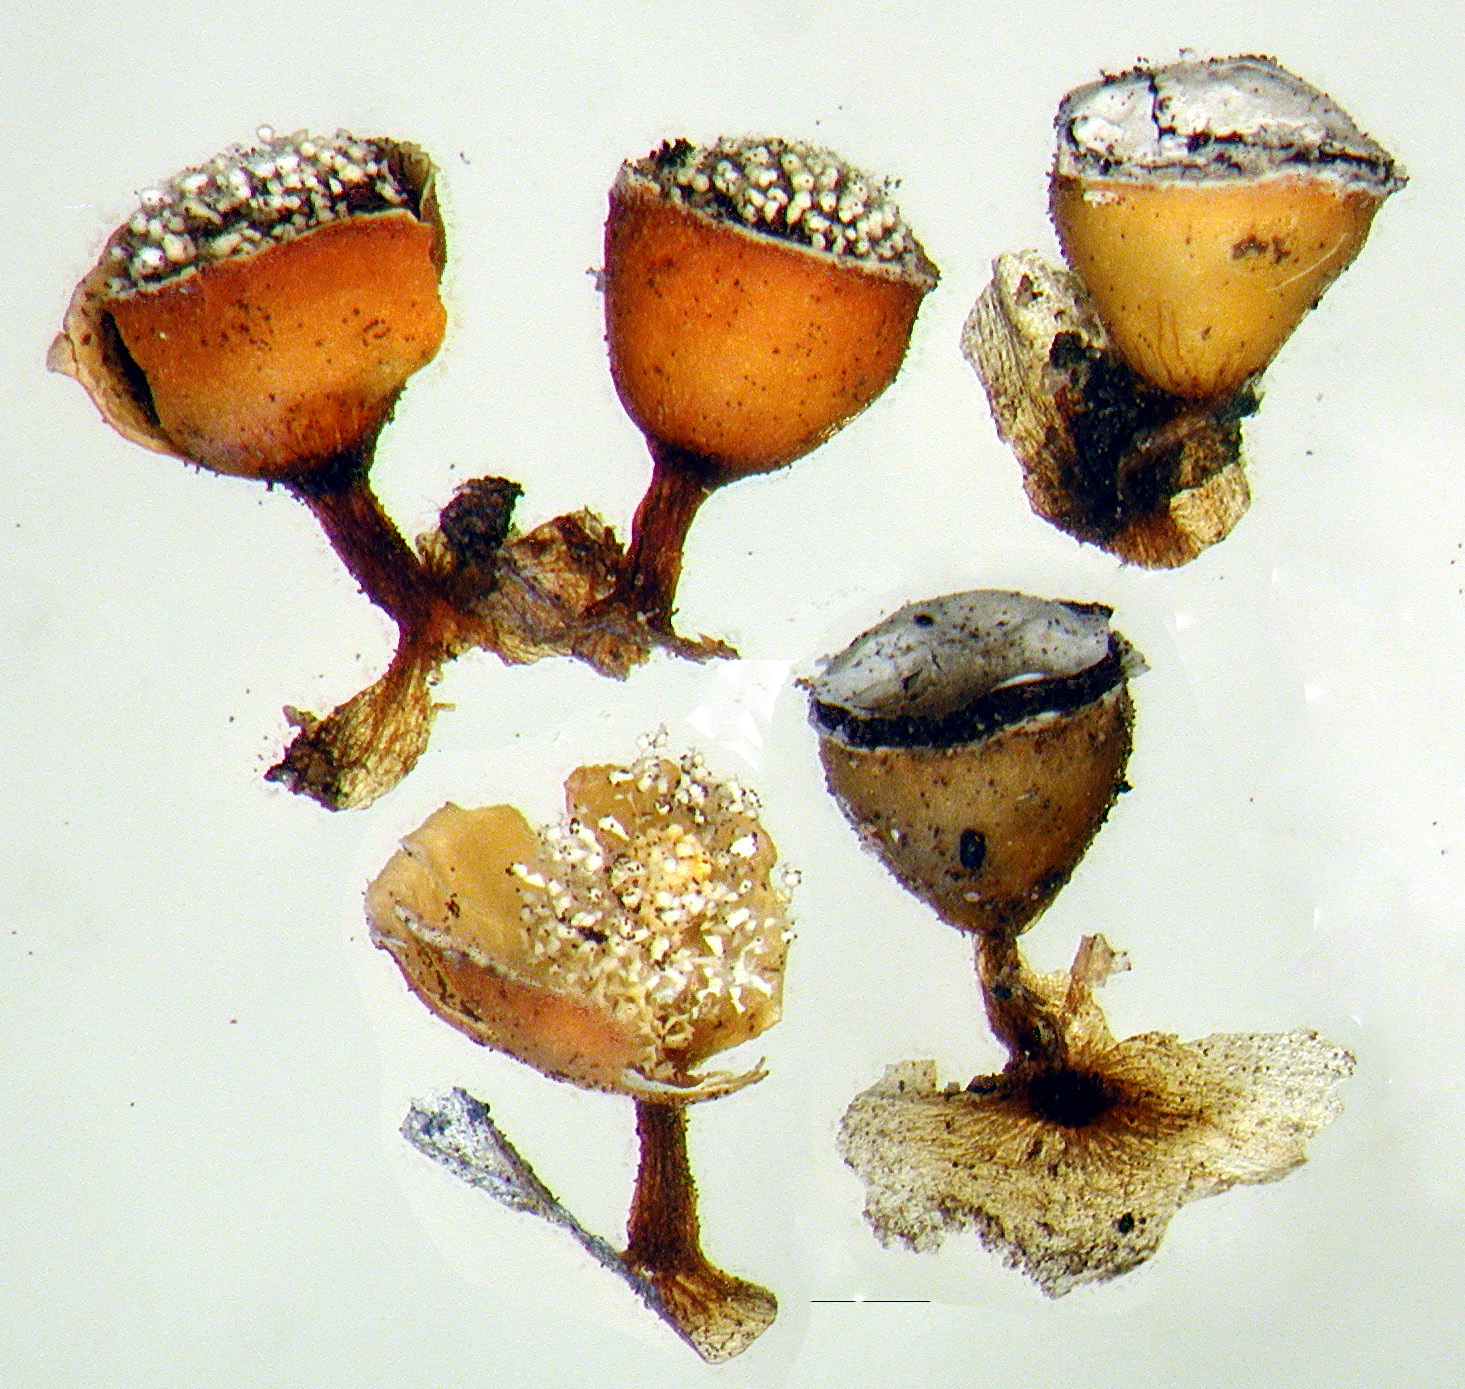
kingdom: Protozoa
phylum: Mycetozoa
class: Myxomycetes
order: Physarales
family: Physaraceae
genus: Craterium
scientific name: Craterium minutum
